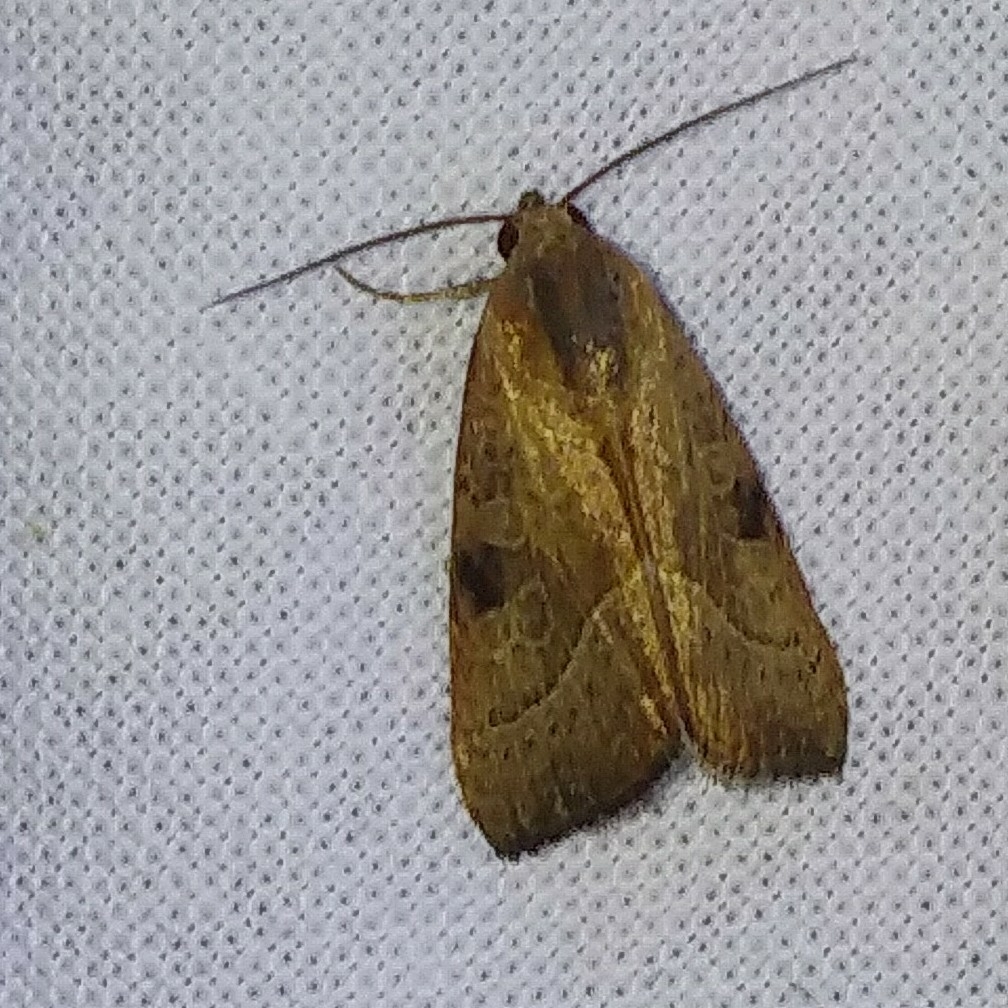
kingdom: Animalia
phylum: Arthropoda
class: Insecta
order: Lepidoptera
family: Noctuidae
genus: Galgula
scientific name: Galgula partita
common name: Wedgeling
